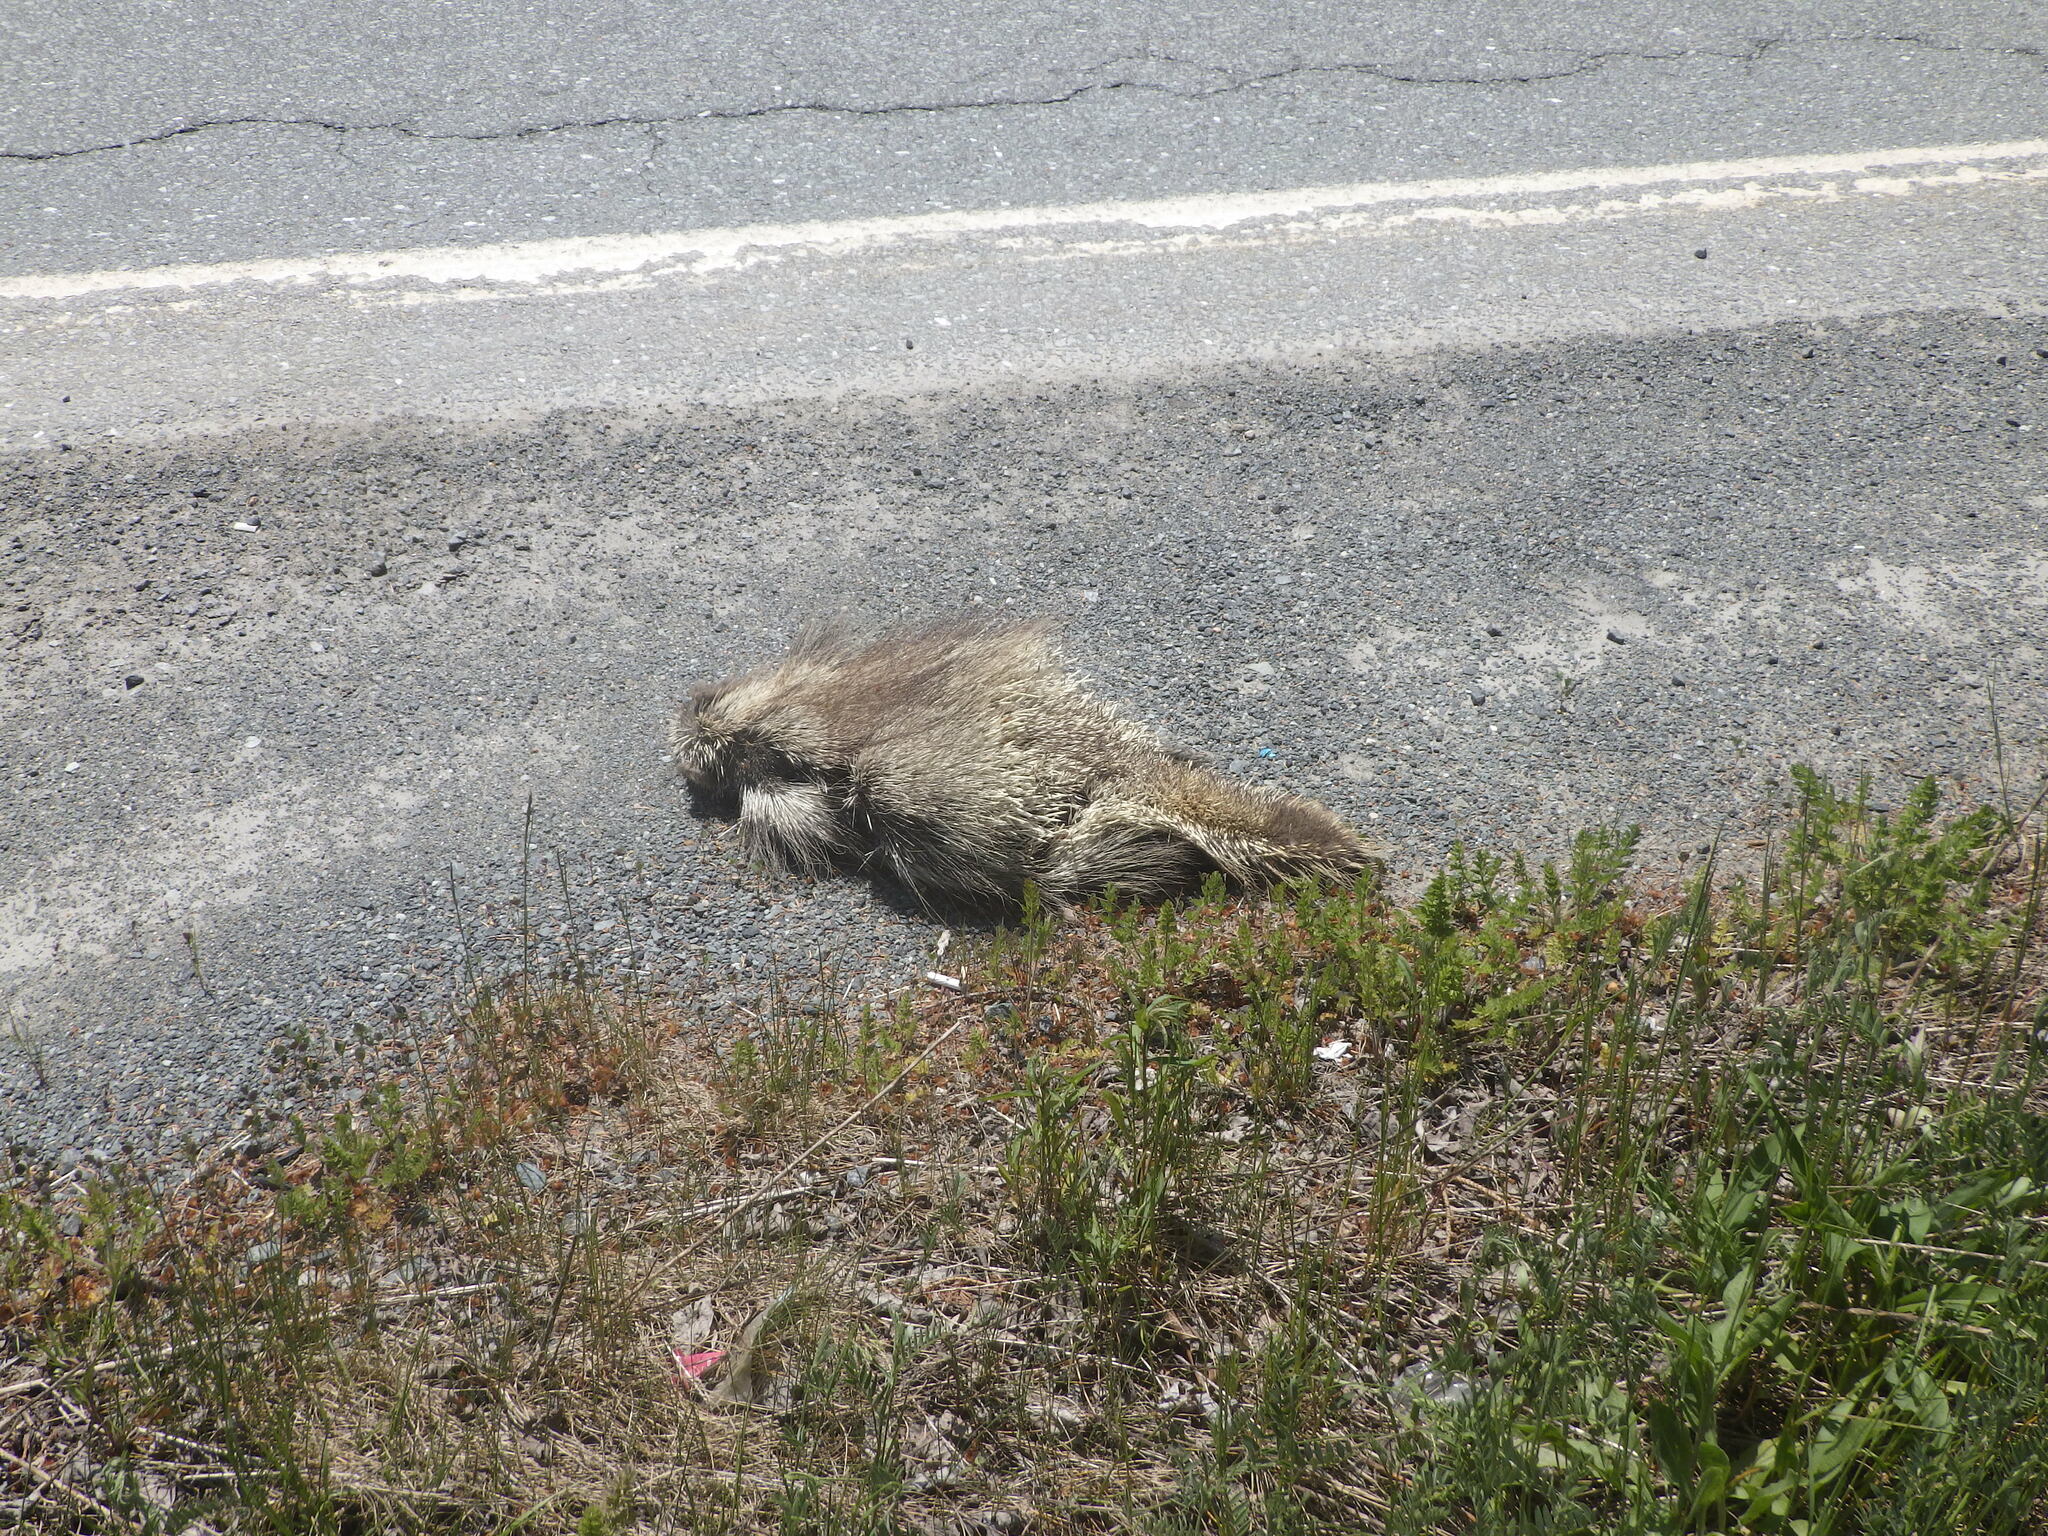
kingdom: Animalia
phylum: Chordata
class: Mammalia
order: Rodentia
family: Erethizontidae
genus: Erethizon
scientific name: Erethizon dorsatus
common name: North american porcupine
